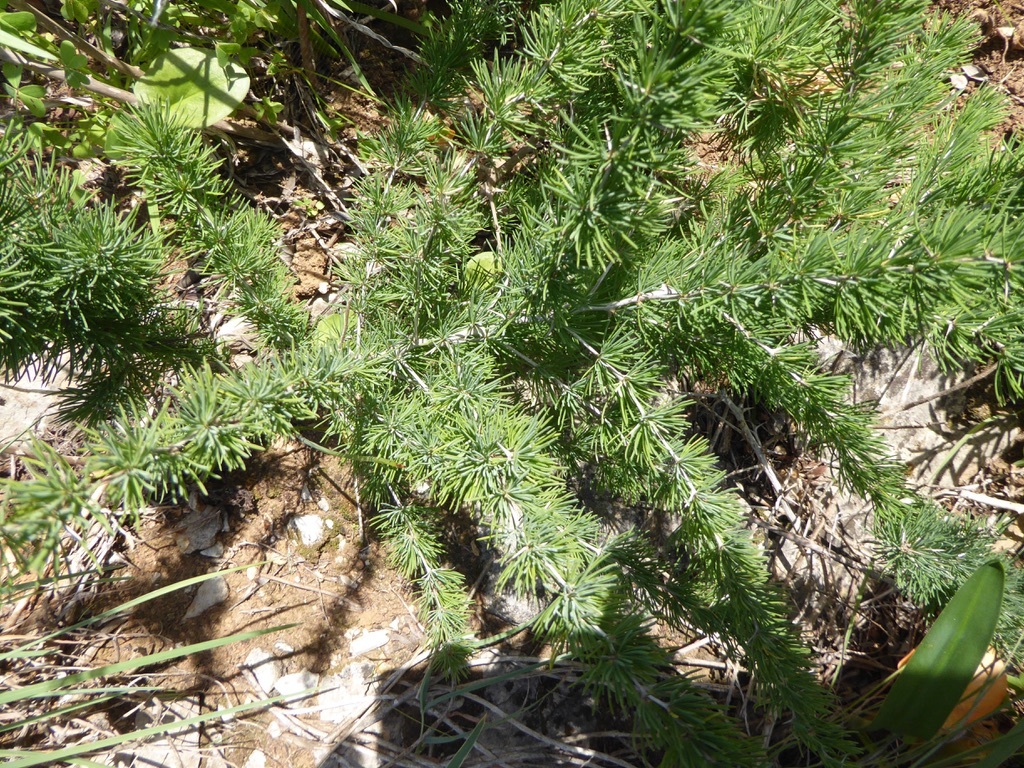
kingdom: Plantae
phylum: Tracheophyta
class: Liliopsida
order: Asparagales
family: Asparagaceae
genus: Asparagus
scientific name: Asparagus albus
